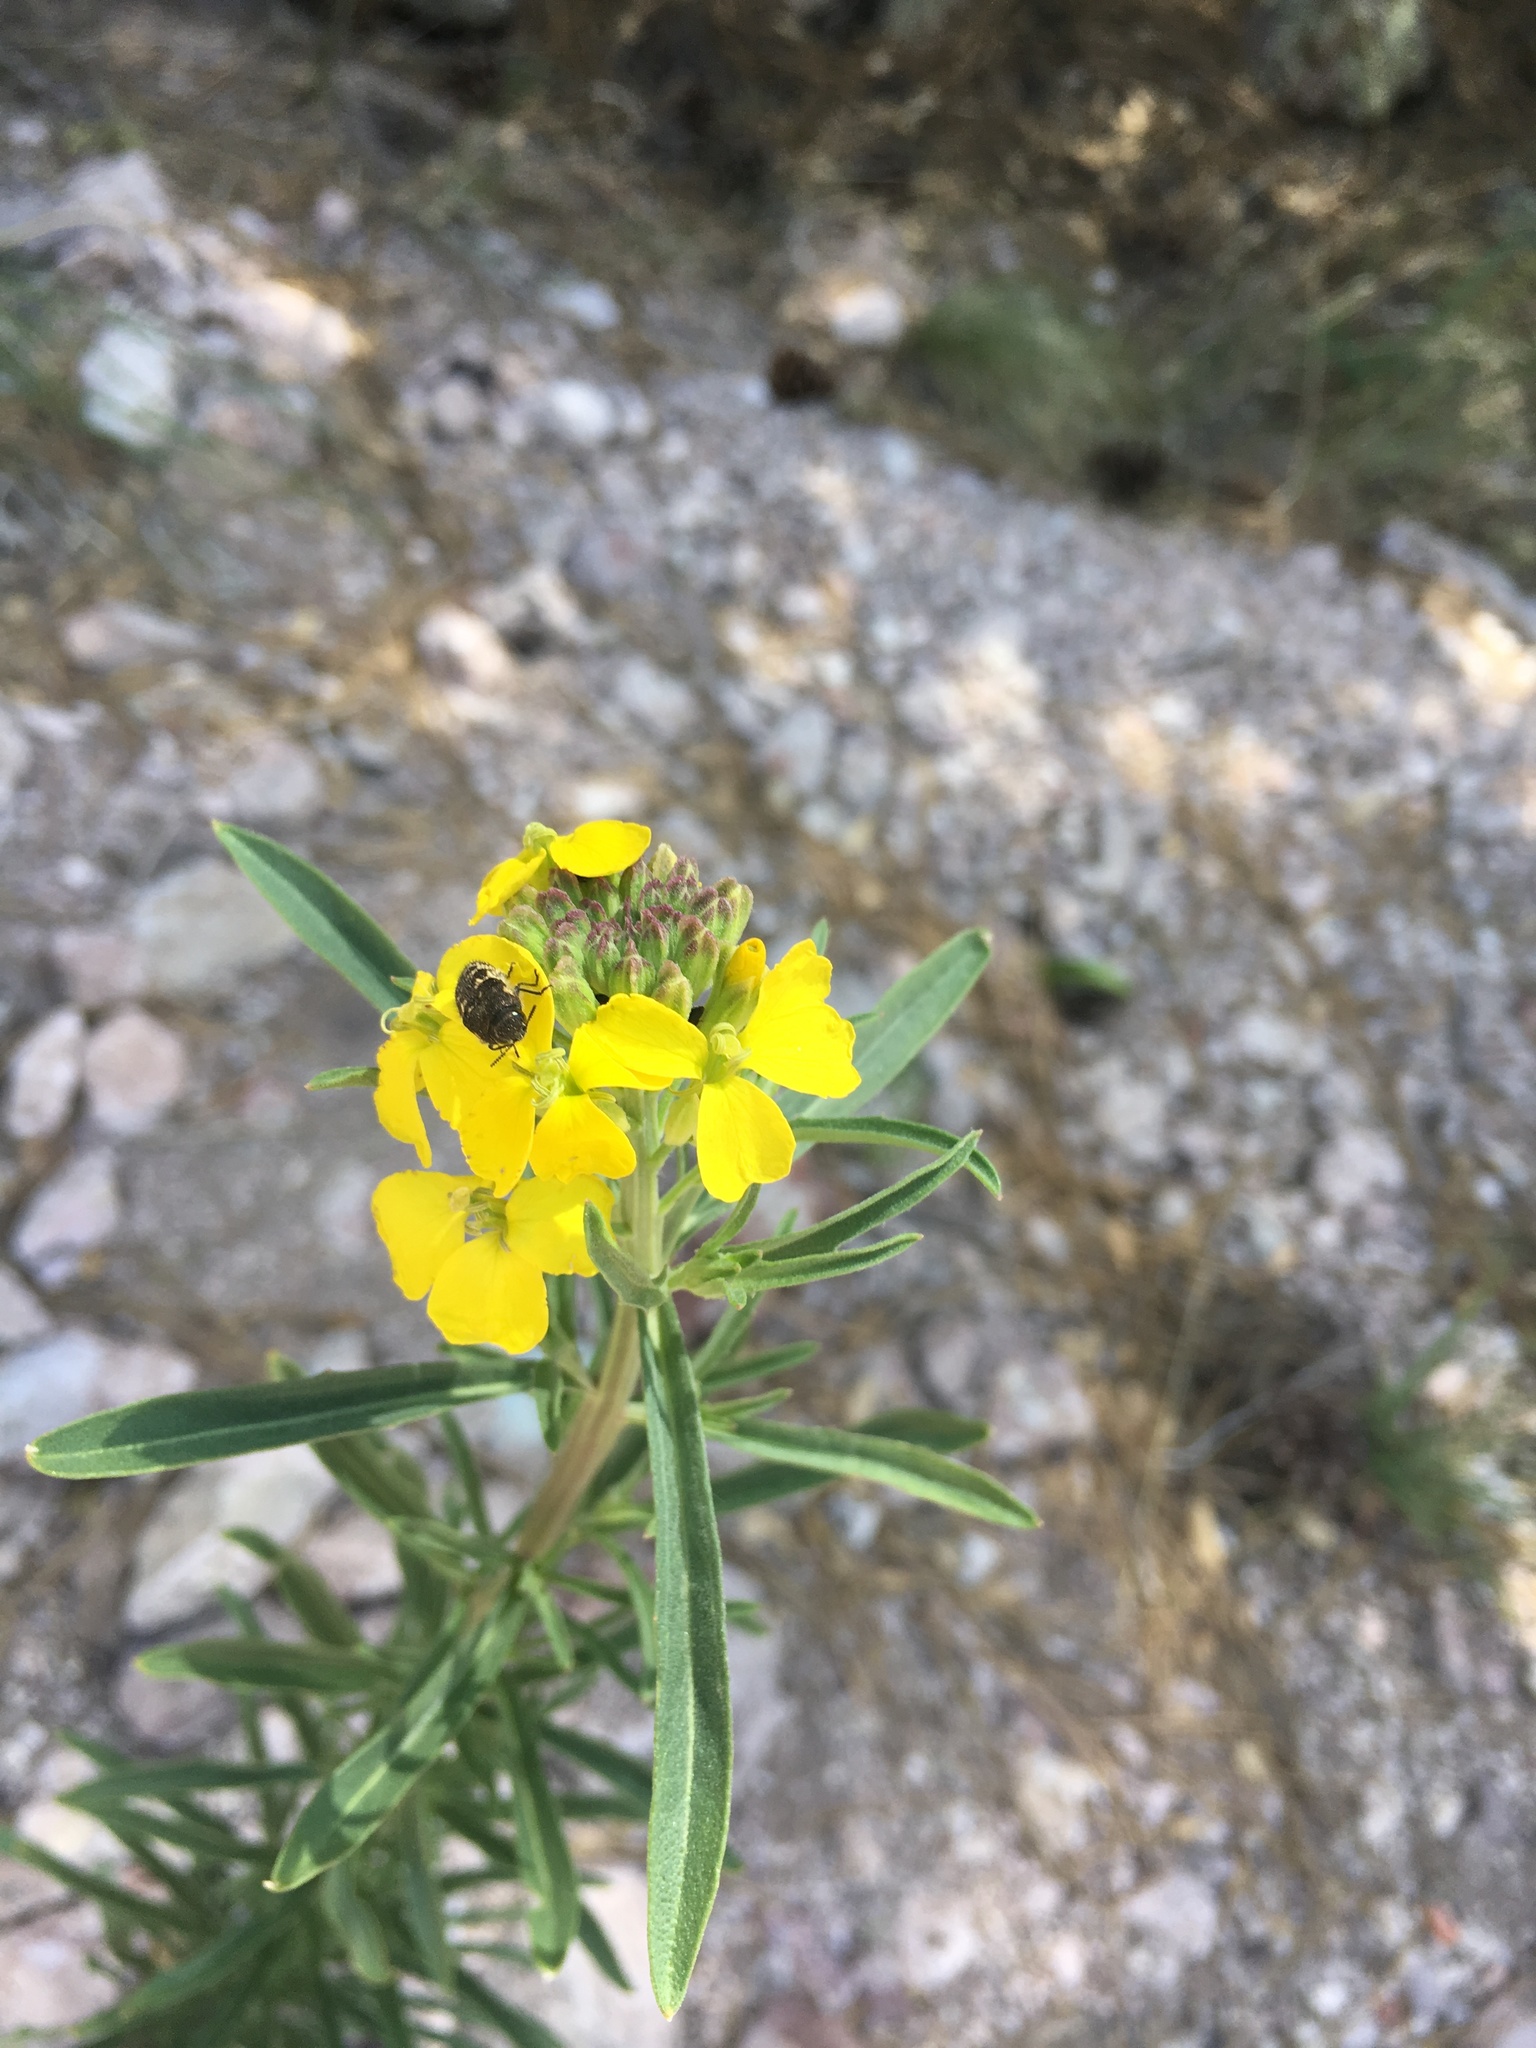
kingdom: Plantae
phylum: Tracheophyta
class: Magnoliopsida
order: Brassicales
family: Brassicaceae
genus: Erysimum
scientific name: Erysimum capitatum
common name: Western wallflower
